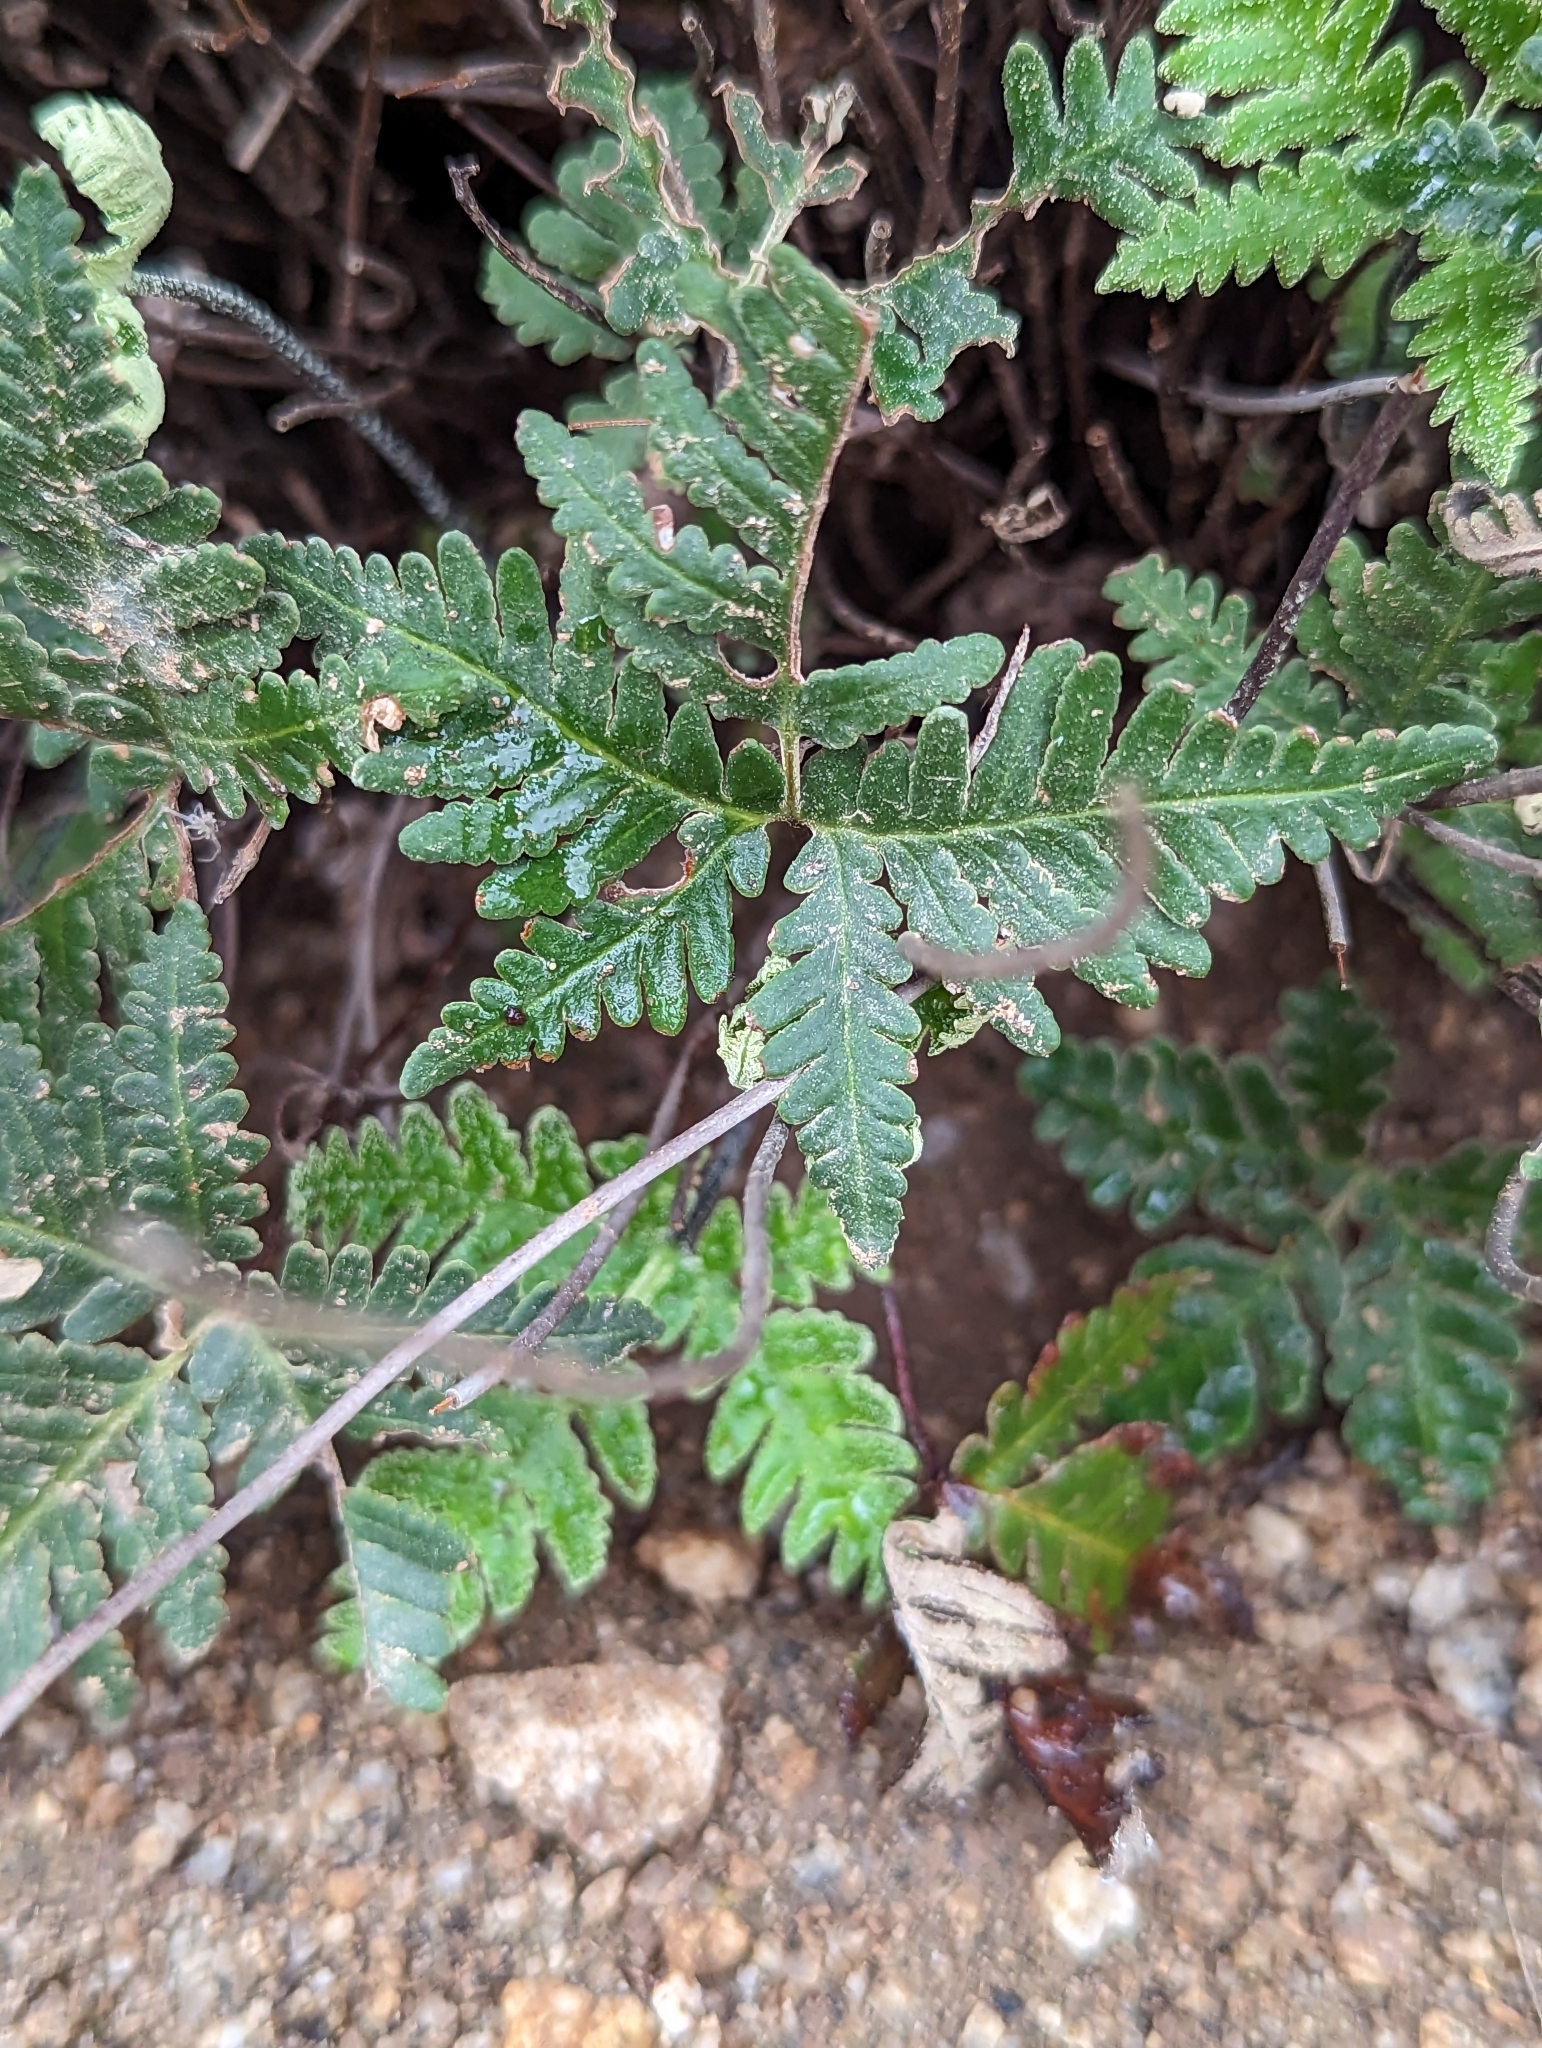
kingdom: Plantae
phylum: Tracheophyta
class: Polypodiopsida
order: Polypodiales
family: Pteridaceae
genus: Notholaena
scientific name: Notholaena standleyi
